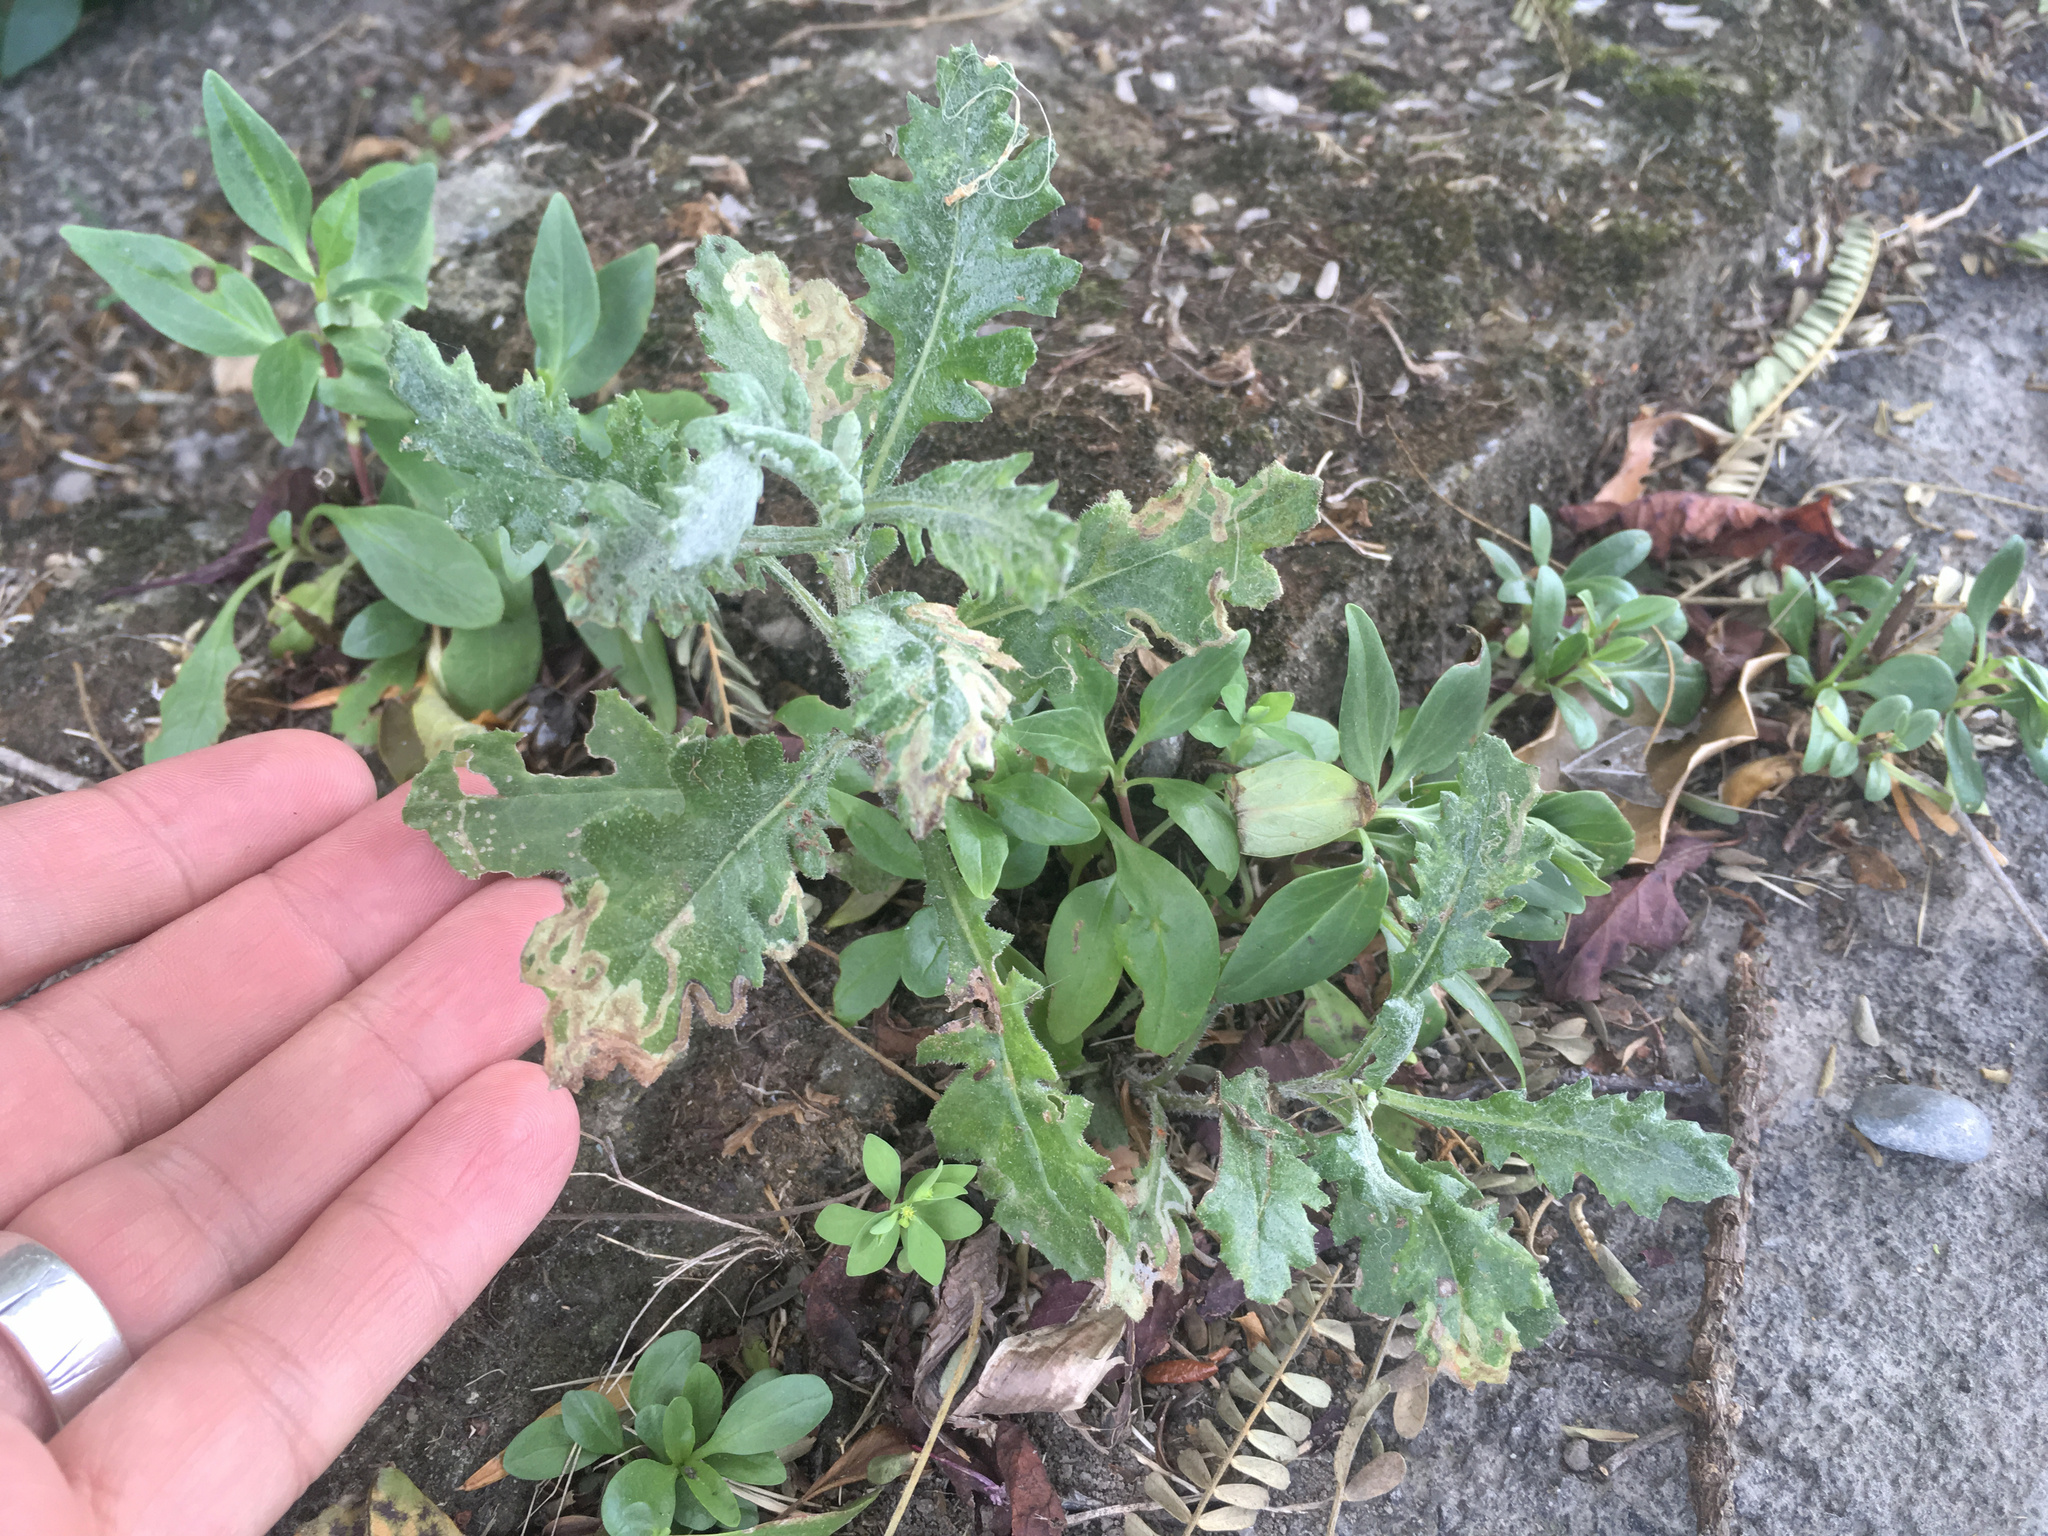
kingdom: Plantae
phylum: Tracheophyta
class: Magnoliopsida
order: Asterales
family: Asteraceae
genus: Senecio
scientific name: Senecio glomeratus
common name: Cutleaf burnweed
